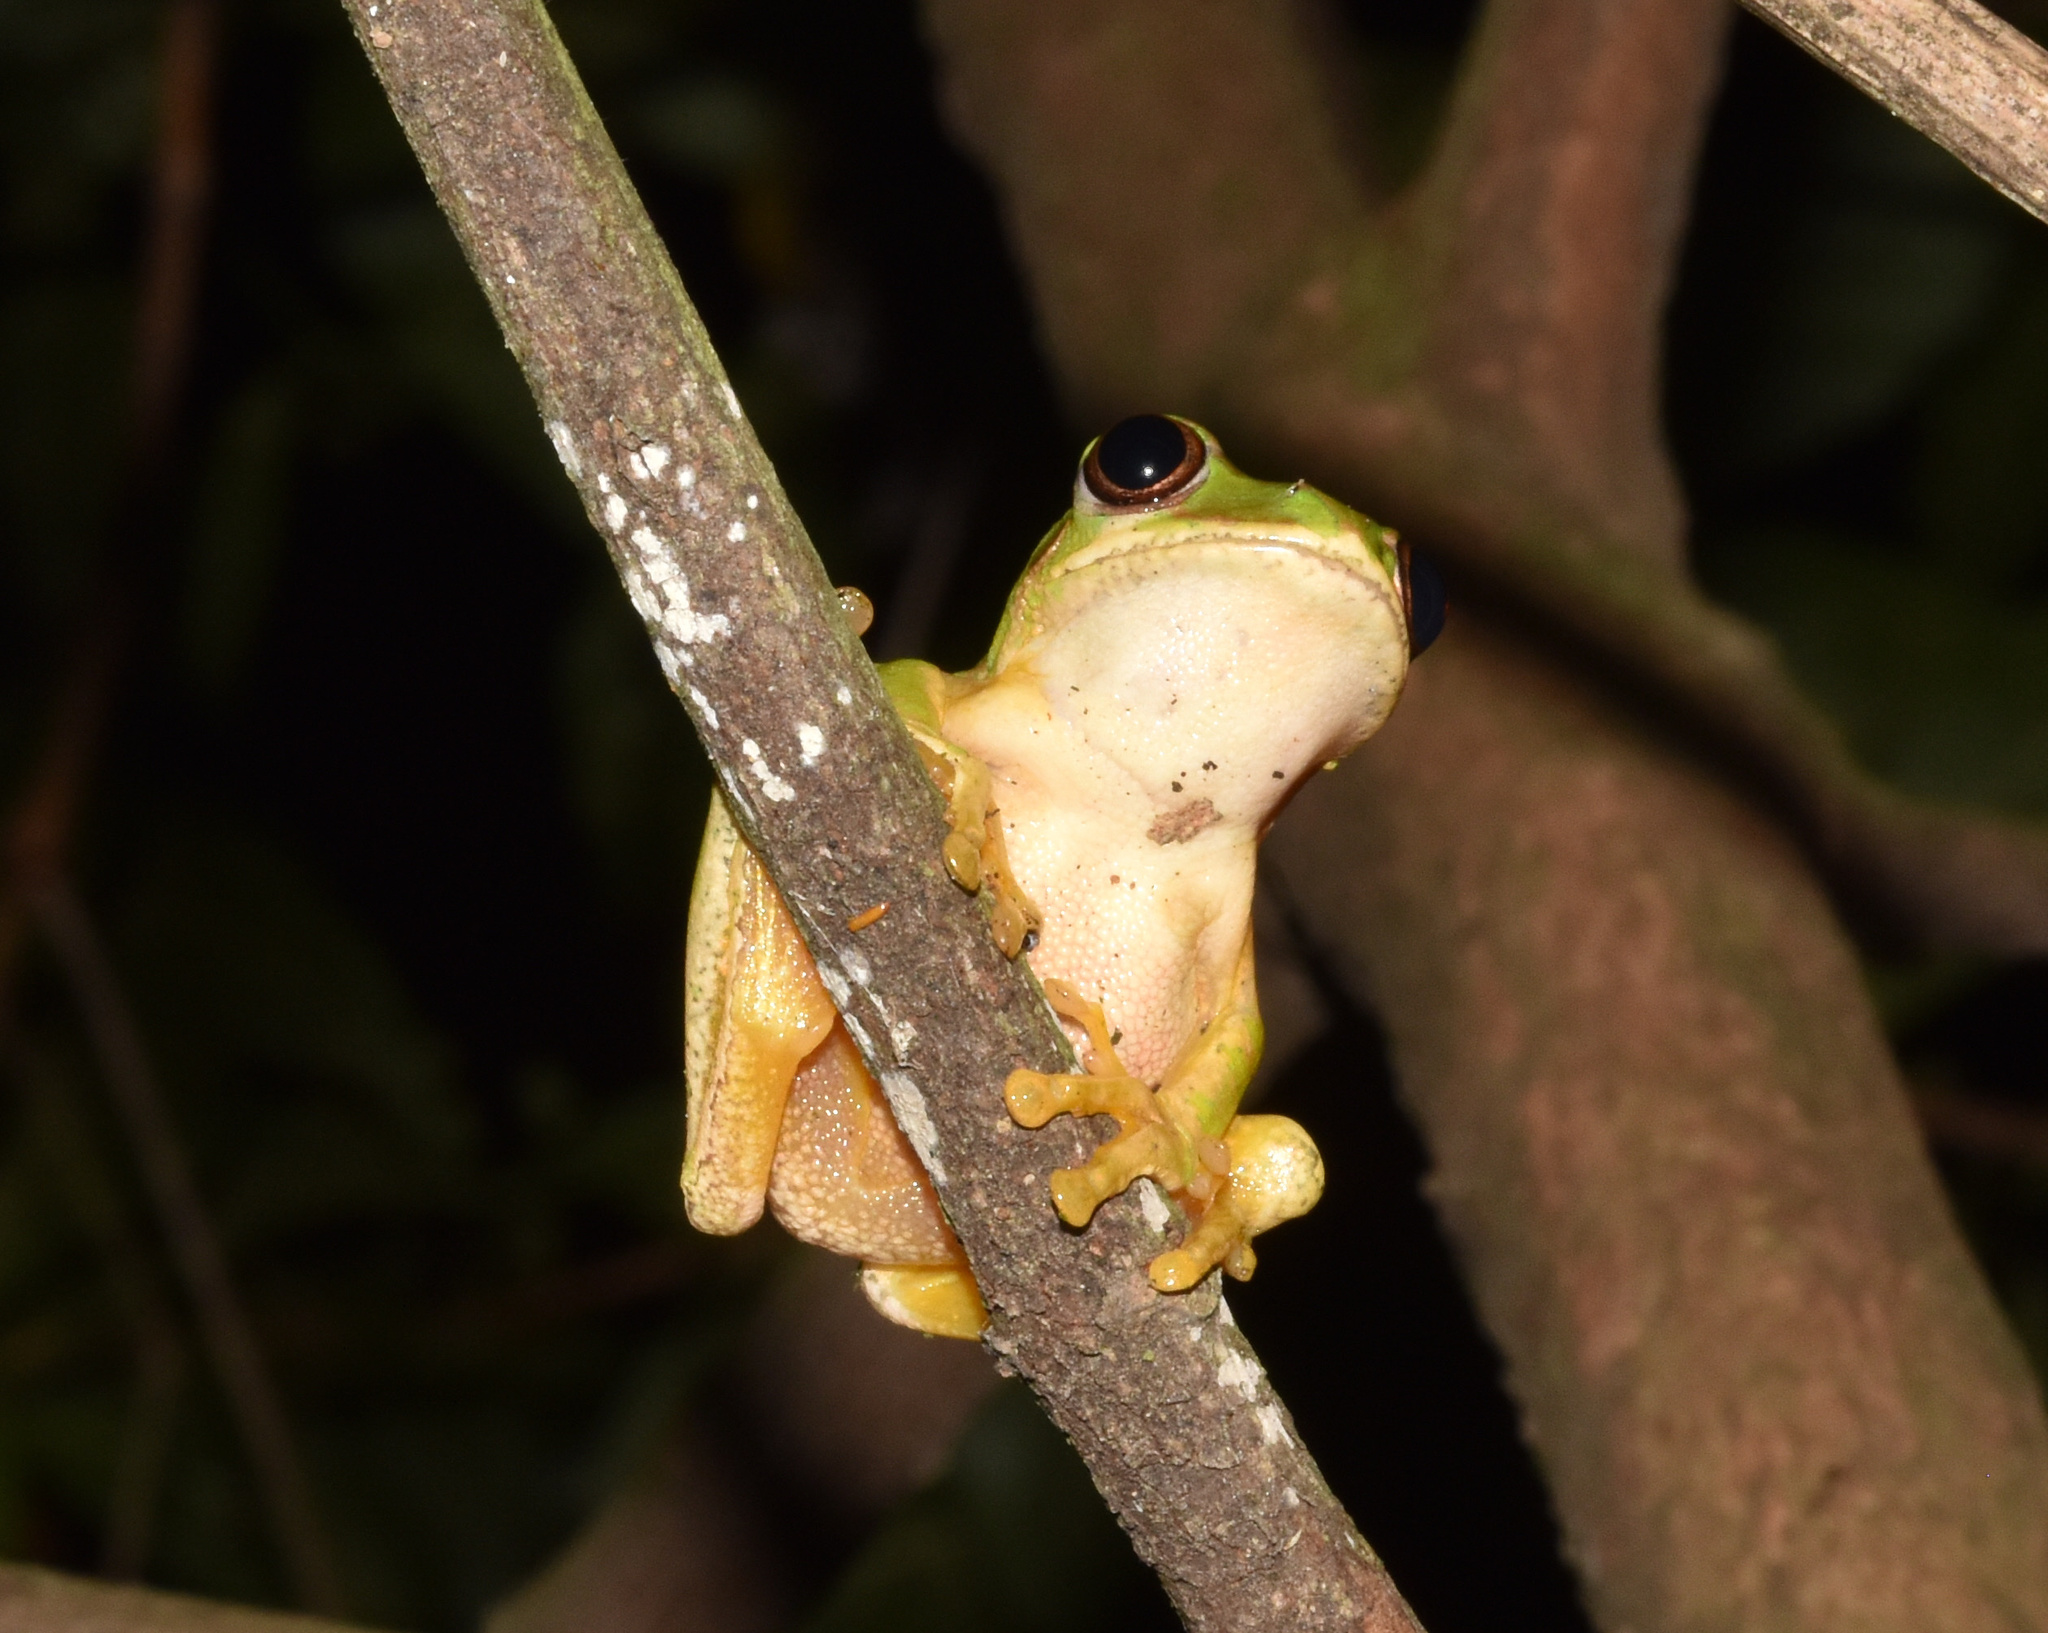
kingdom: Animalia
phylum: Chordata
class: Amphibia
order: Anura
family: Arthroleptidae
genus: Leptopelis
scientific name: Leptopelis natalensis
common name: Natal tree frog
